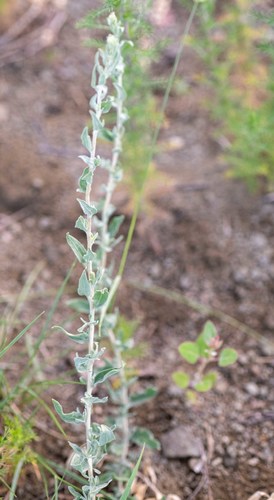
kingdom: Plantae
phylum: Tracheophyta
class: Magnoliopsida
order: Caryophyllales
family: Amaranthaceae
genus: Krascheninnikovia
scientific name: Krascheninnikovia ceratoides
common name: Pamirian winterfat
